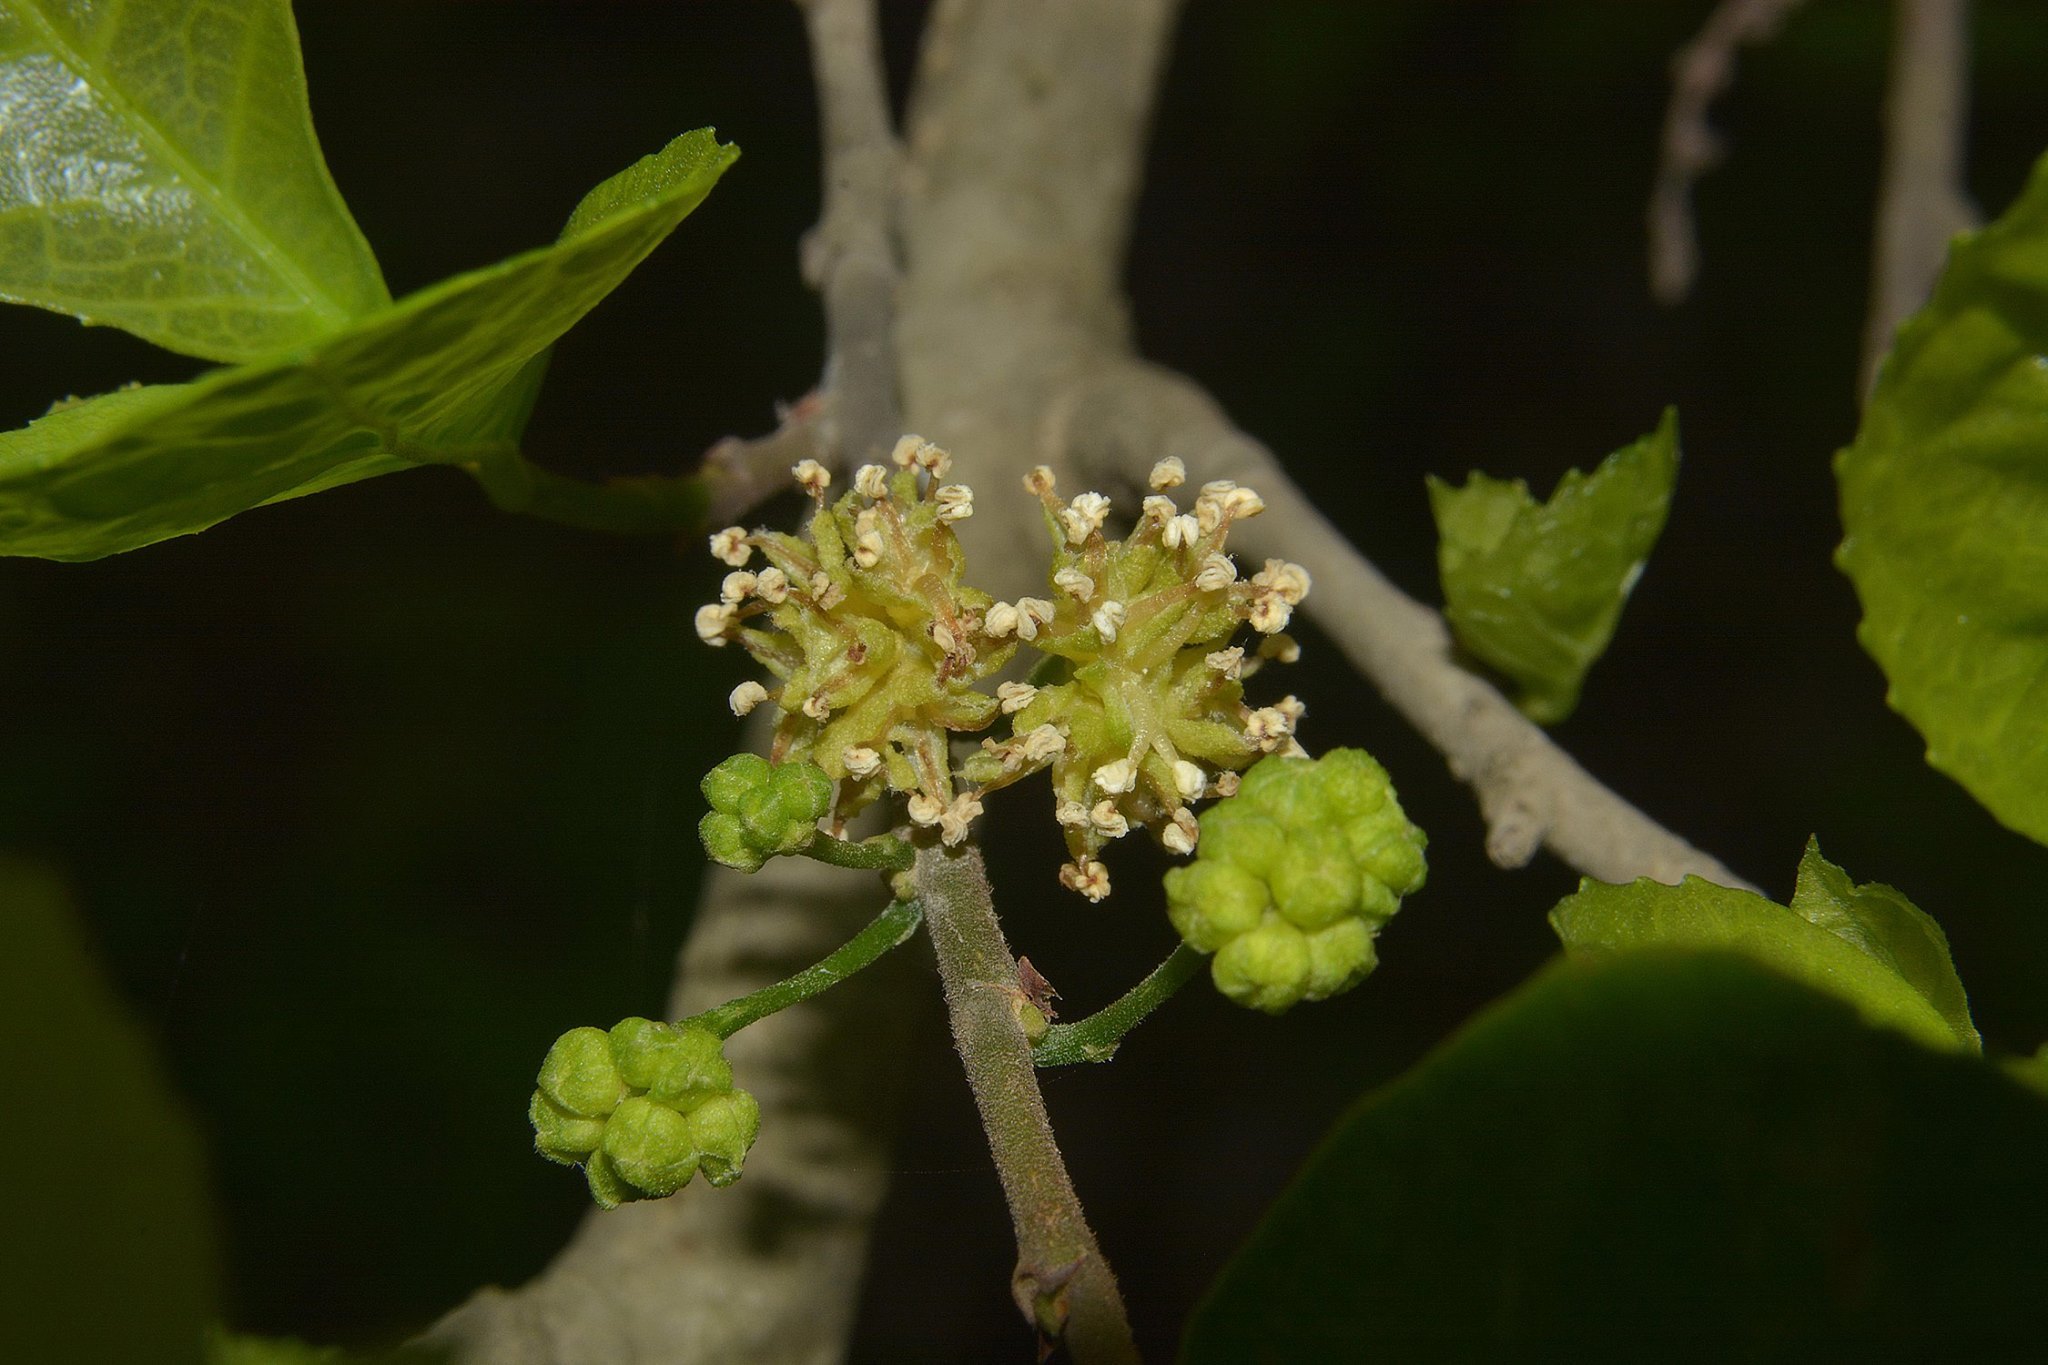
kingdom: Plantae
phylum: Tracheophyta
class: Magnoliopsida
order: Rosales
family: Moraceae
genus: Streblus
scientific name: Streblus asper
